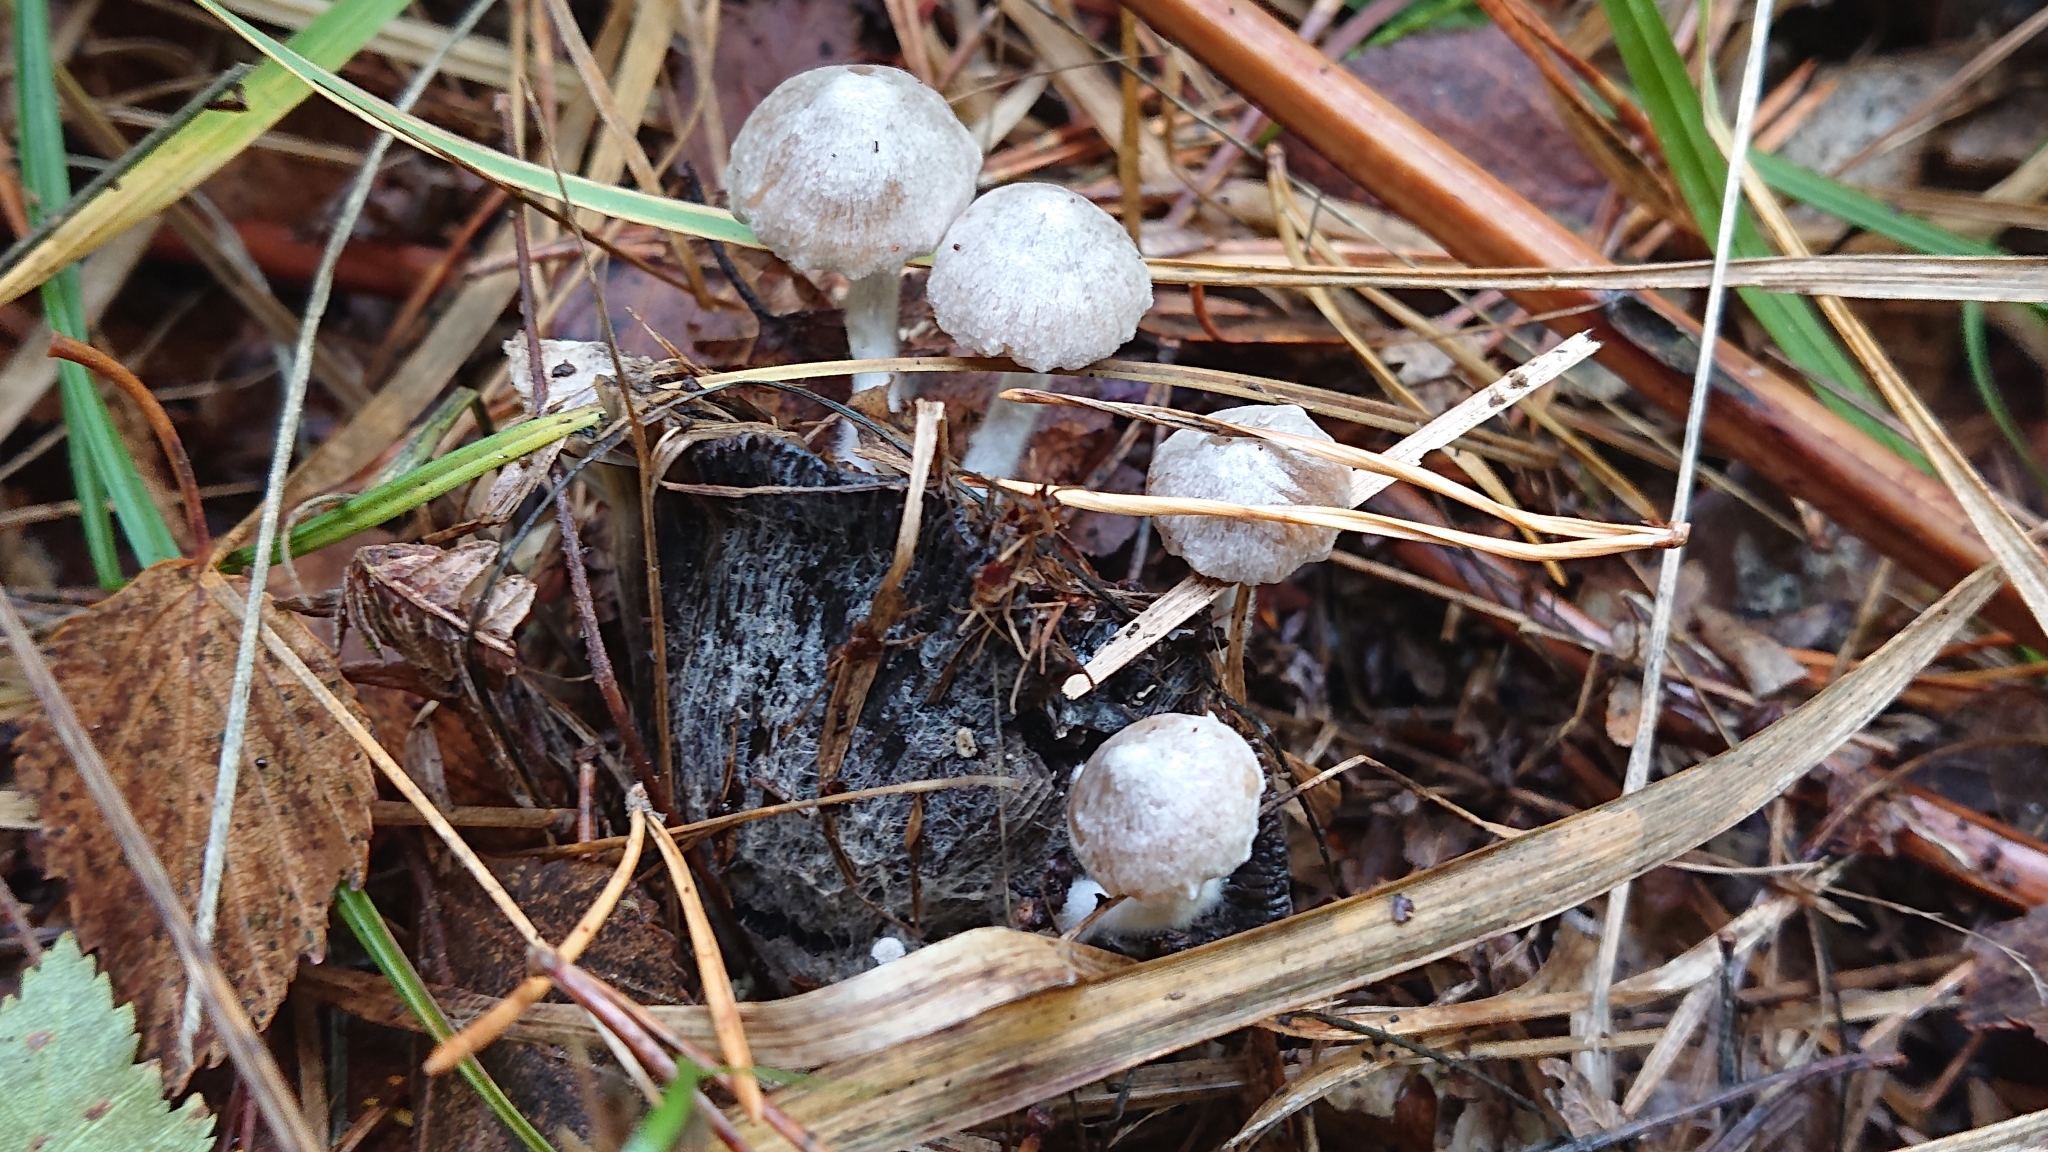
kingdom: Fungi
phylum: Basidiomycota
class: Agaricomycetes
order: Agaricales
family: Lyophyllaceae
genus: Asterophora
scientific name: Asterophora parasitica
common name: Silky piggyback
